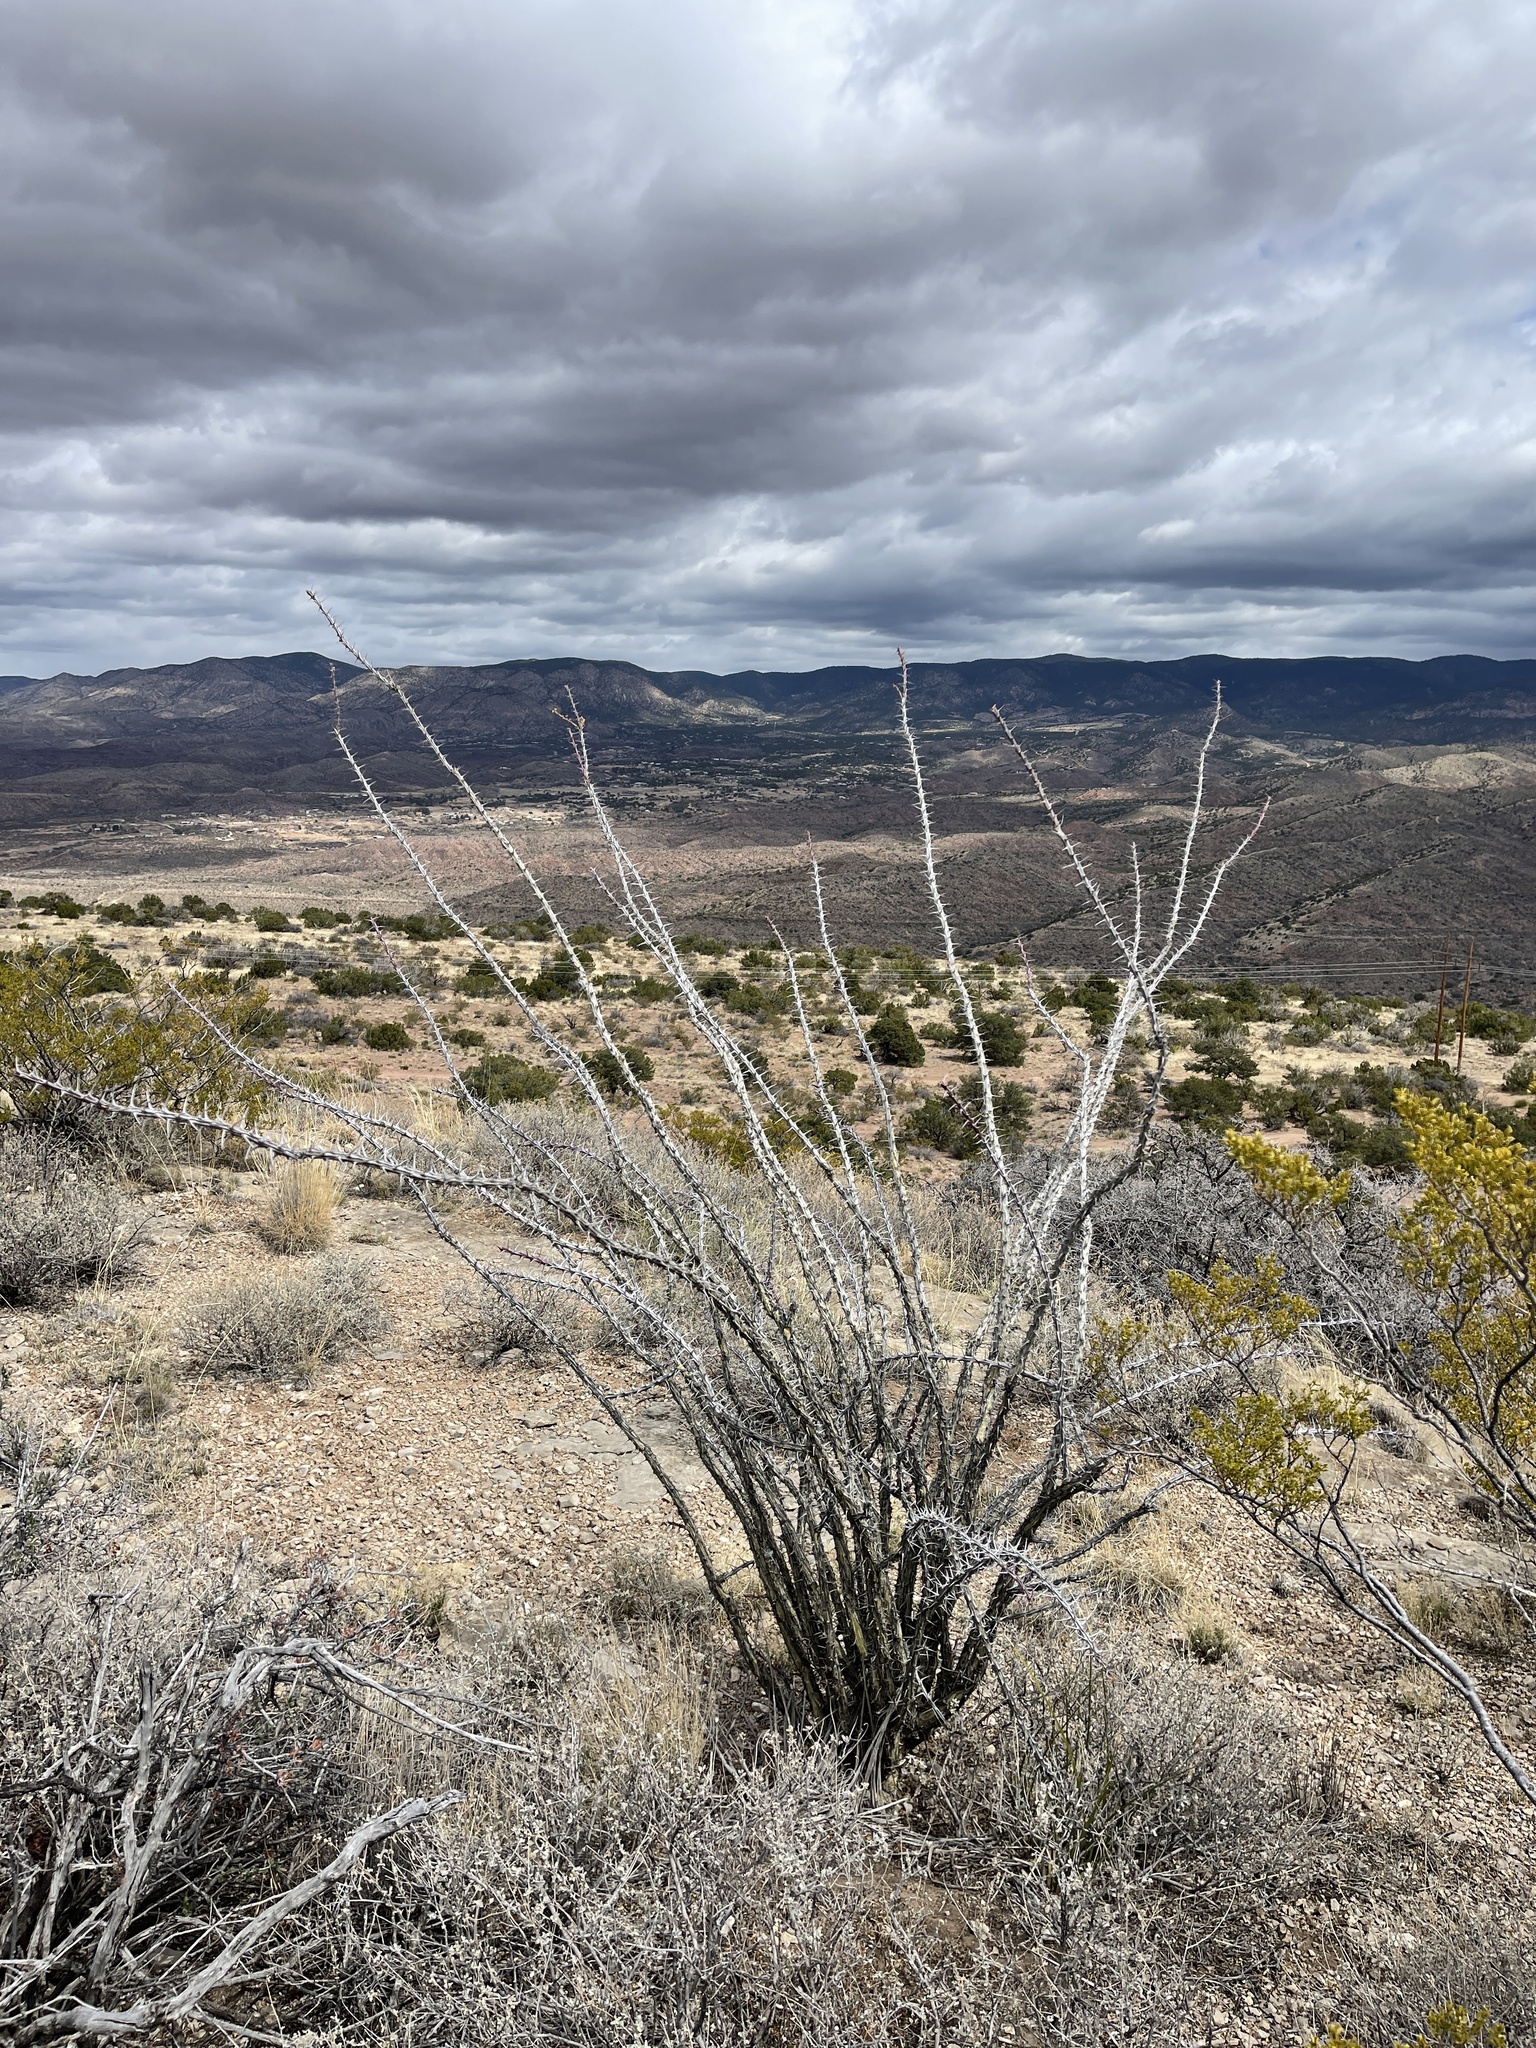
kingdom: Plantae
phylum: Tracheophyta
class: Magnoliopsida
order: Ericales
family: Fouquieriaceae
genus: Fouquieria
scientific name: Fouquieria splendens
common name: Vine-cactus
